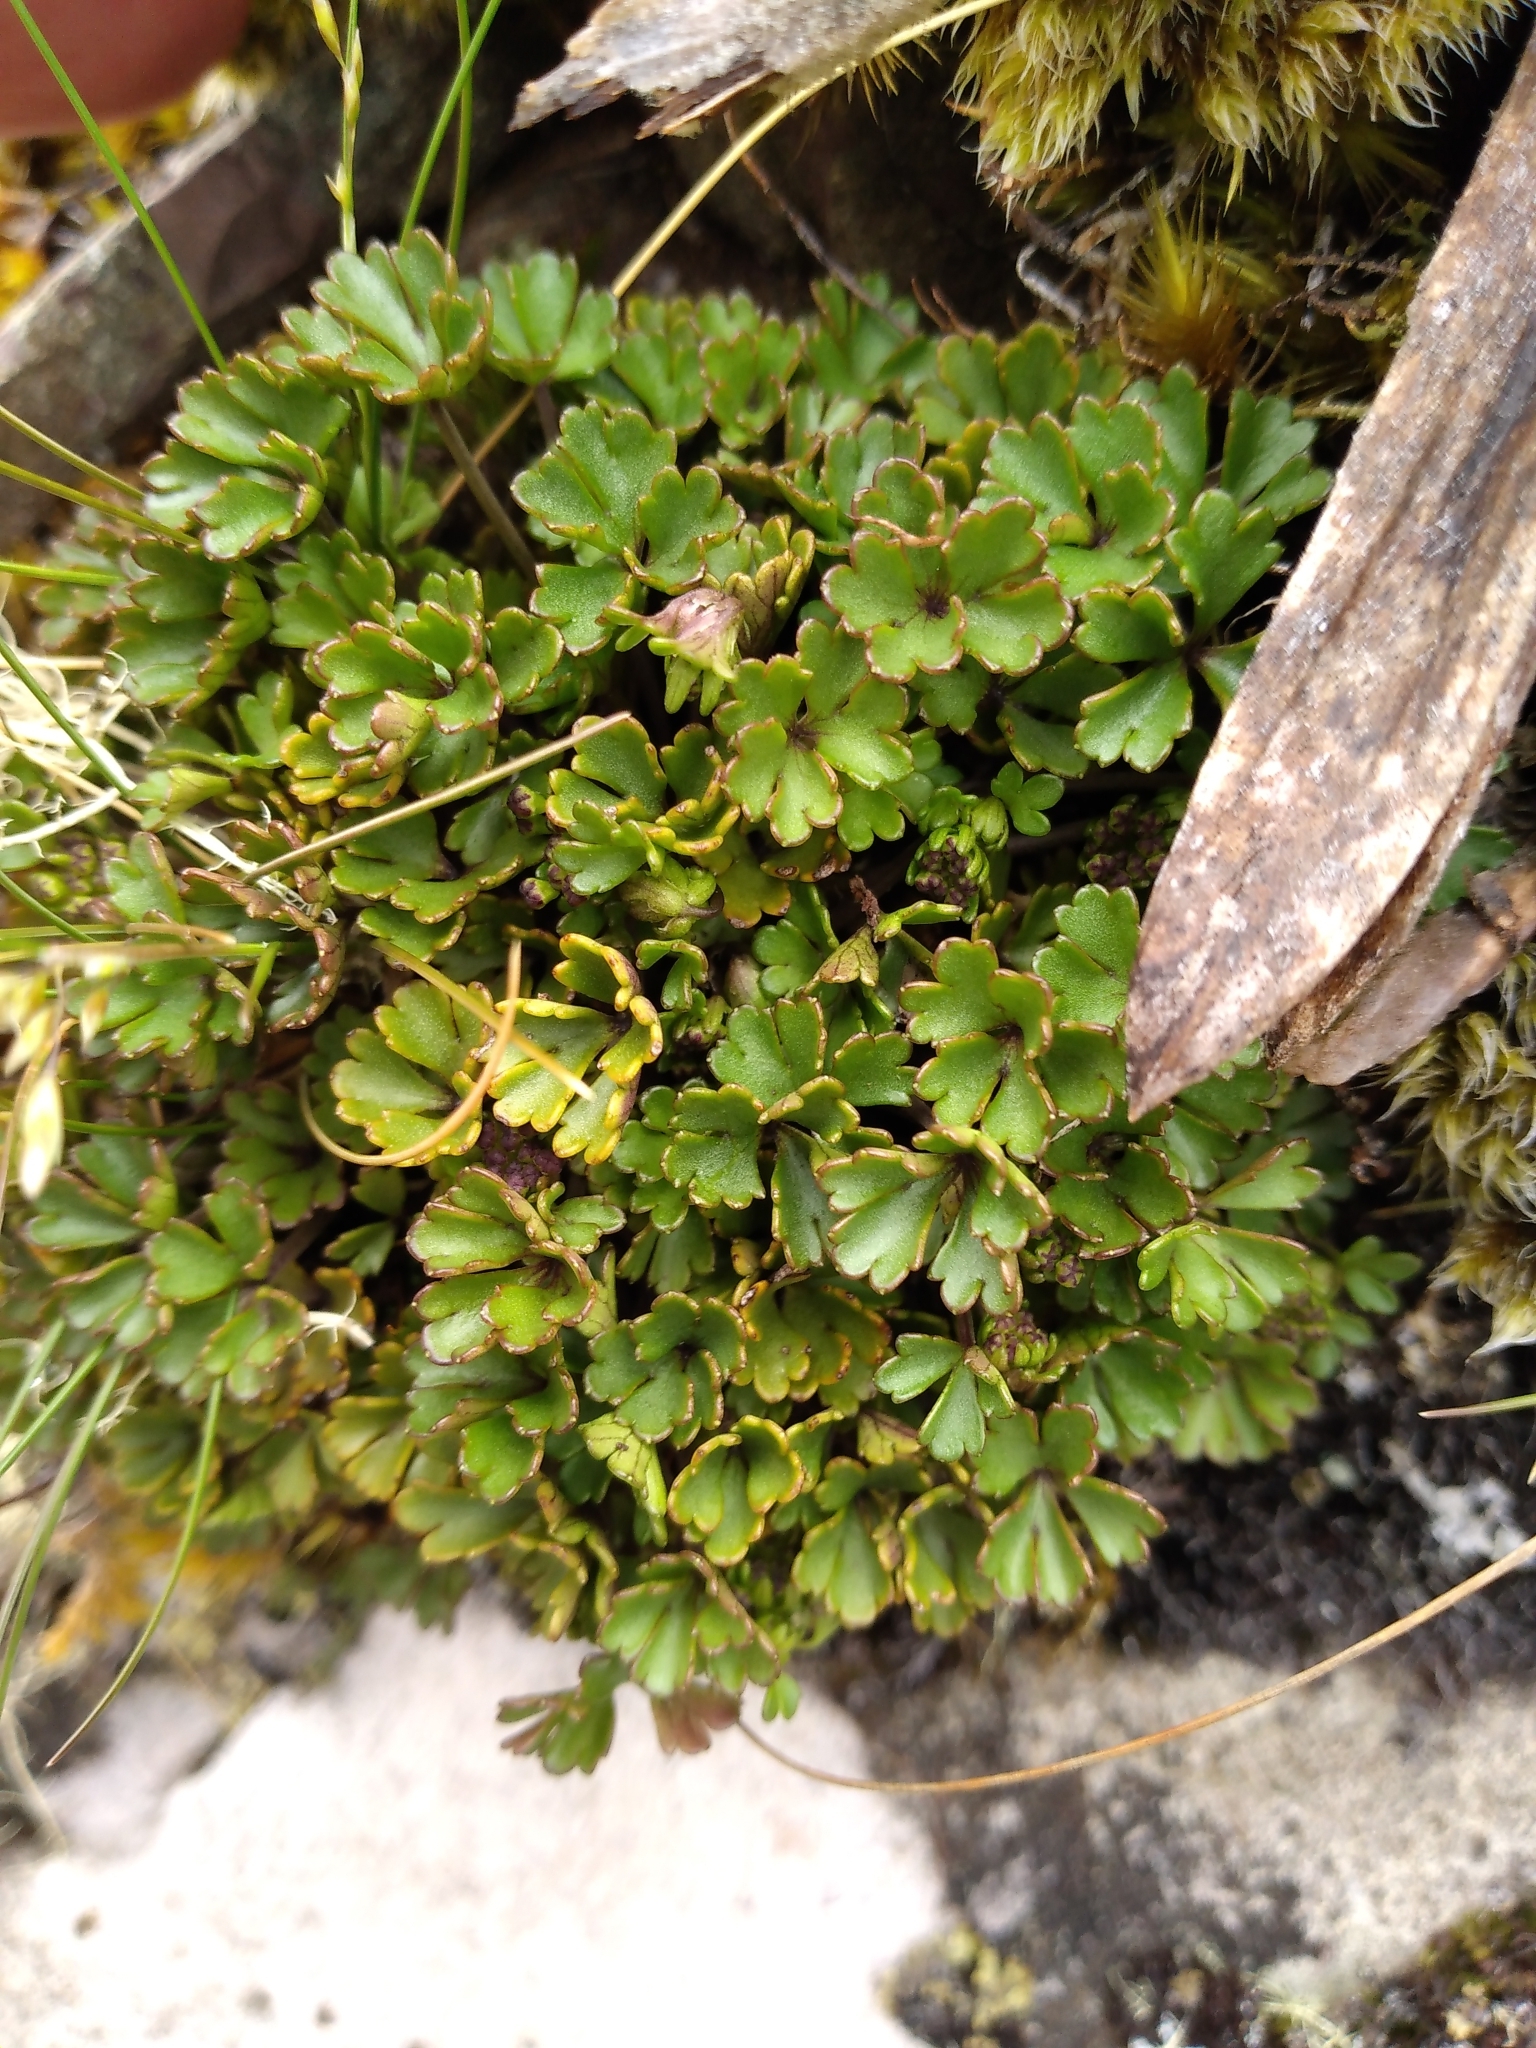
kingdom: Plantae
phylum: Tracheophyta
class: Magnoliopsida
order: Apiales
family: Apiaceae
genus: Azorella
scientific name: Azorella hydrocotyloides
